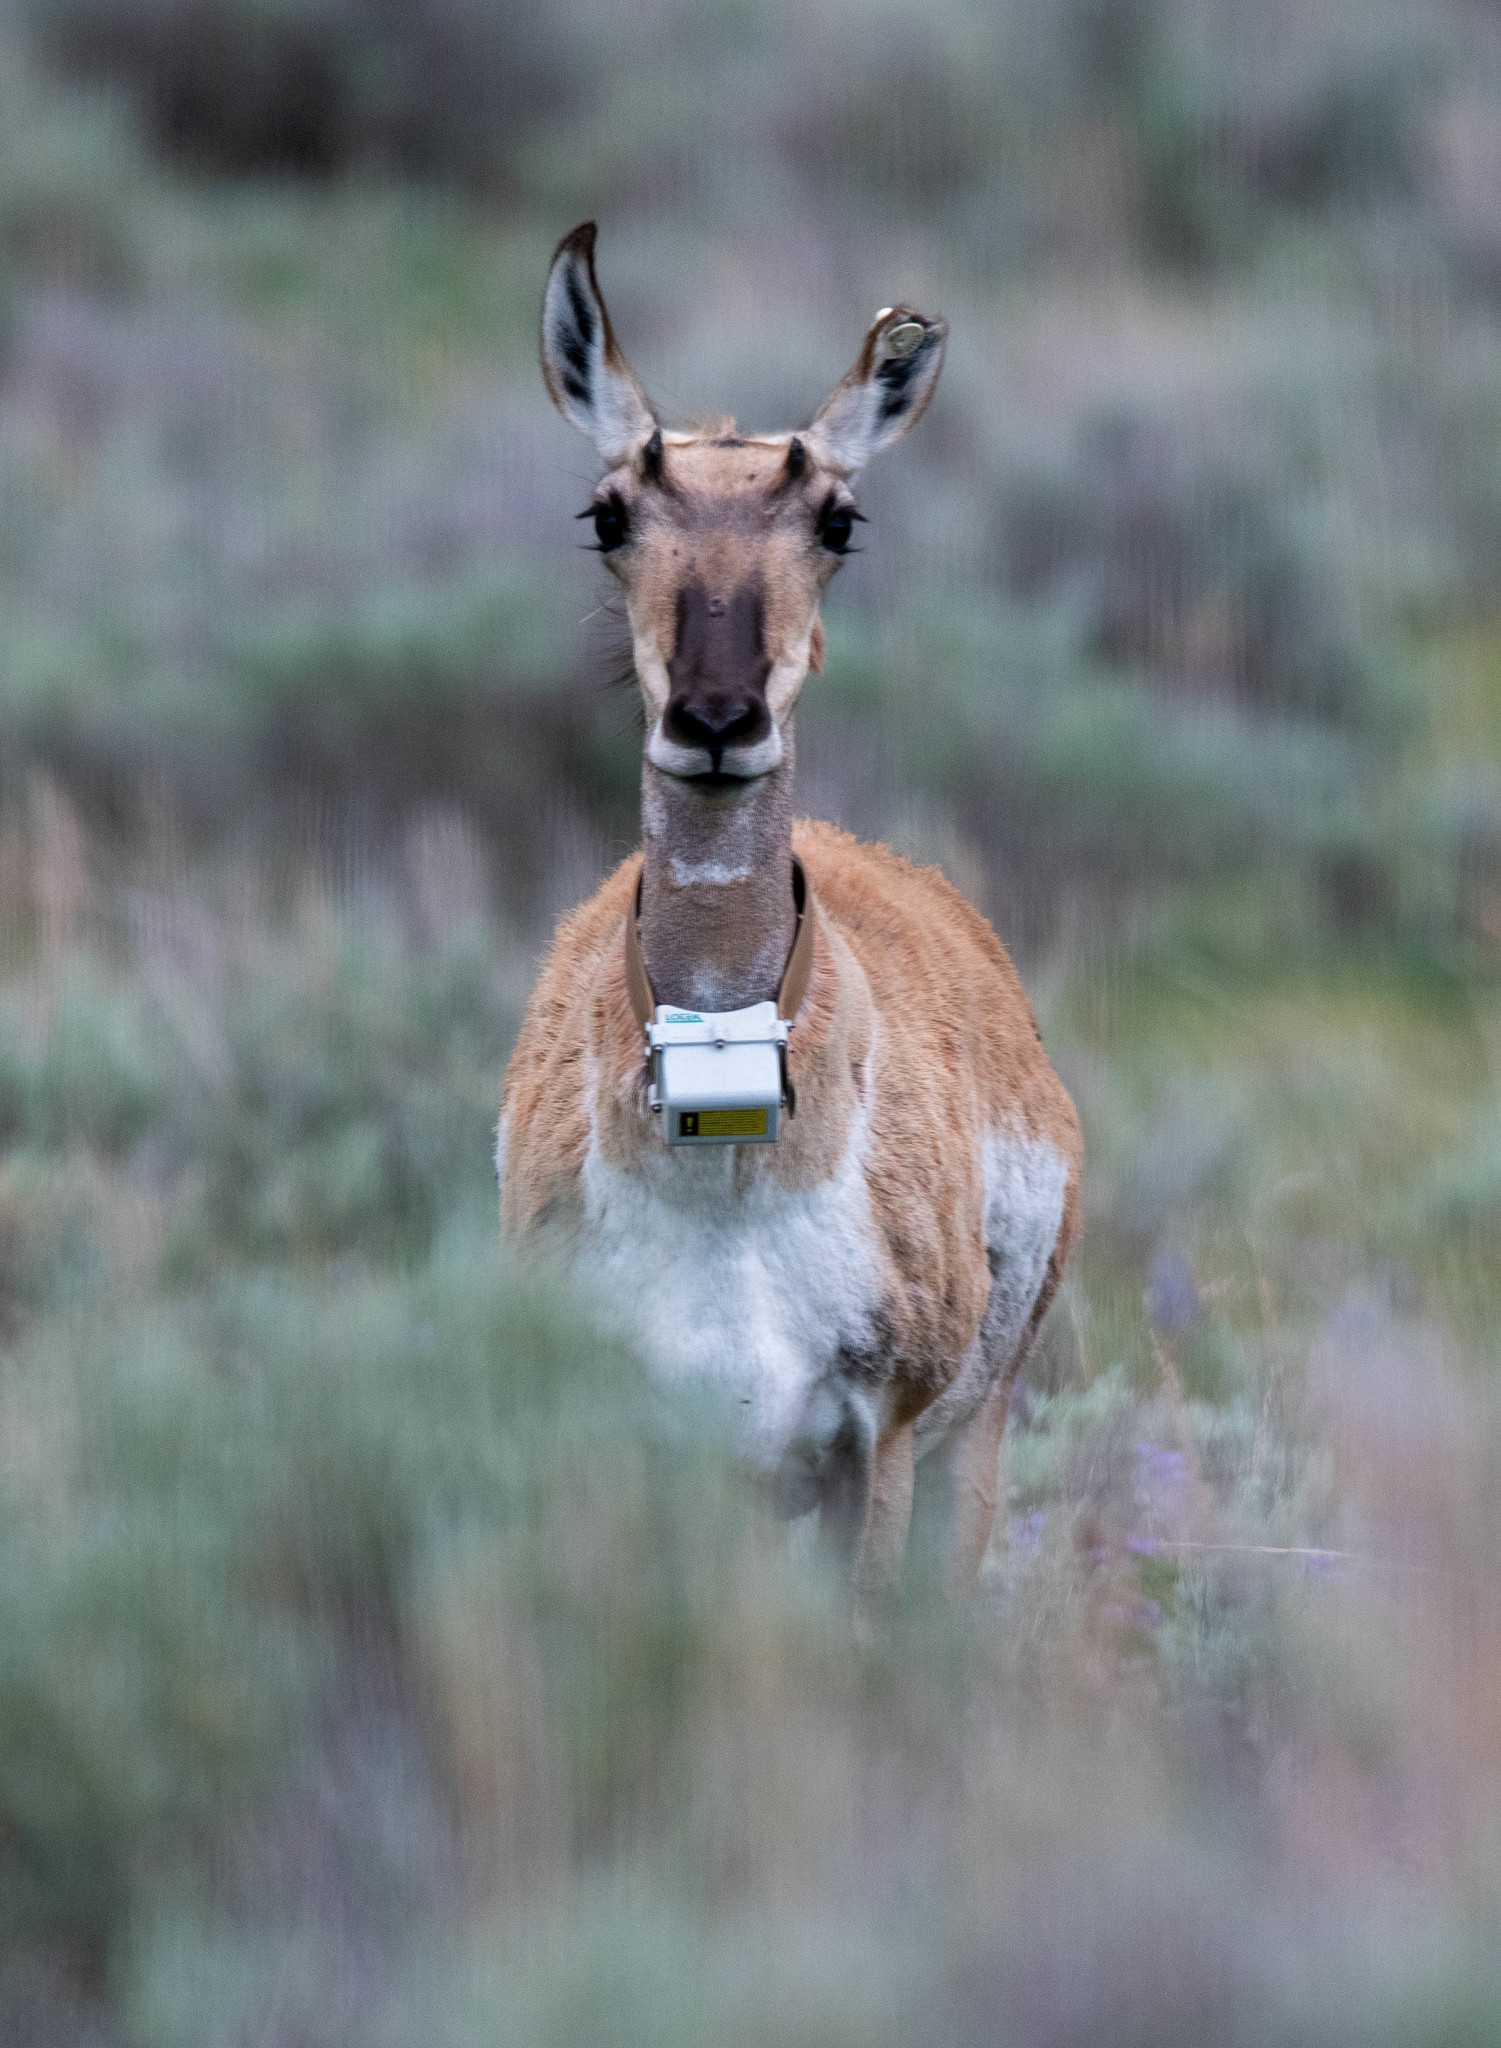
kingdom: Animalia
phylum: Chordata
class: Mammalia
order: Artiodactyla
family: Antilocapridae
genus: Antilocapra
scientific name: Antilocapra americana
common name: Pronghorn
